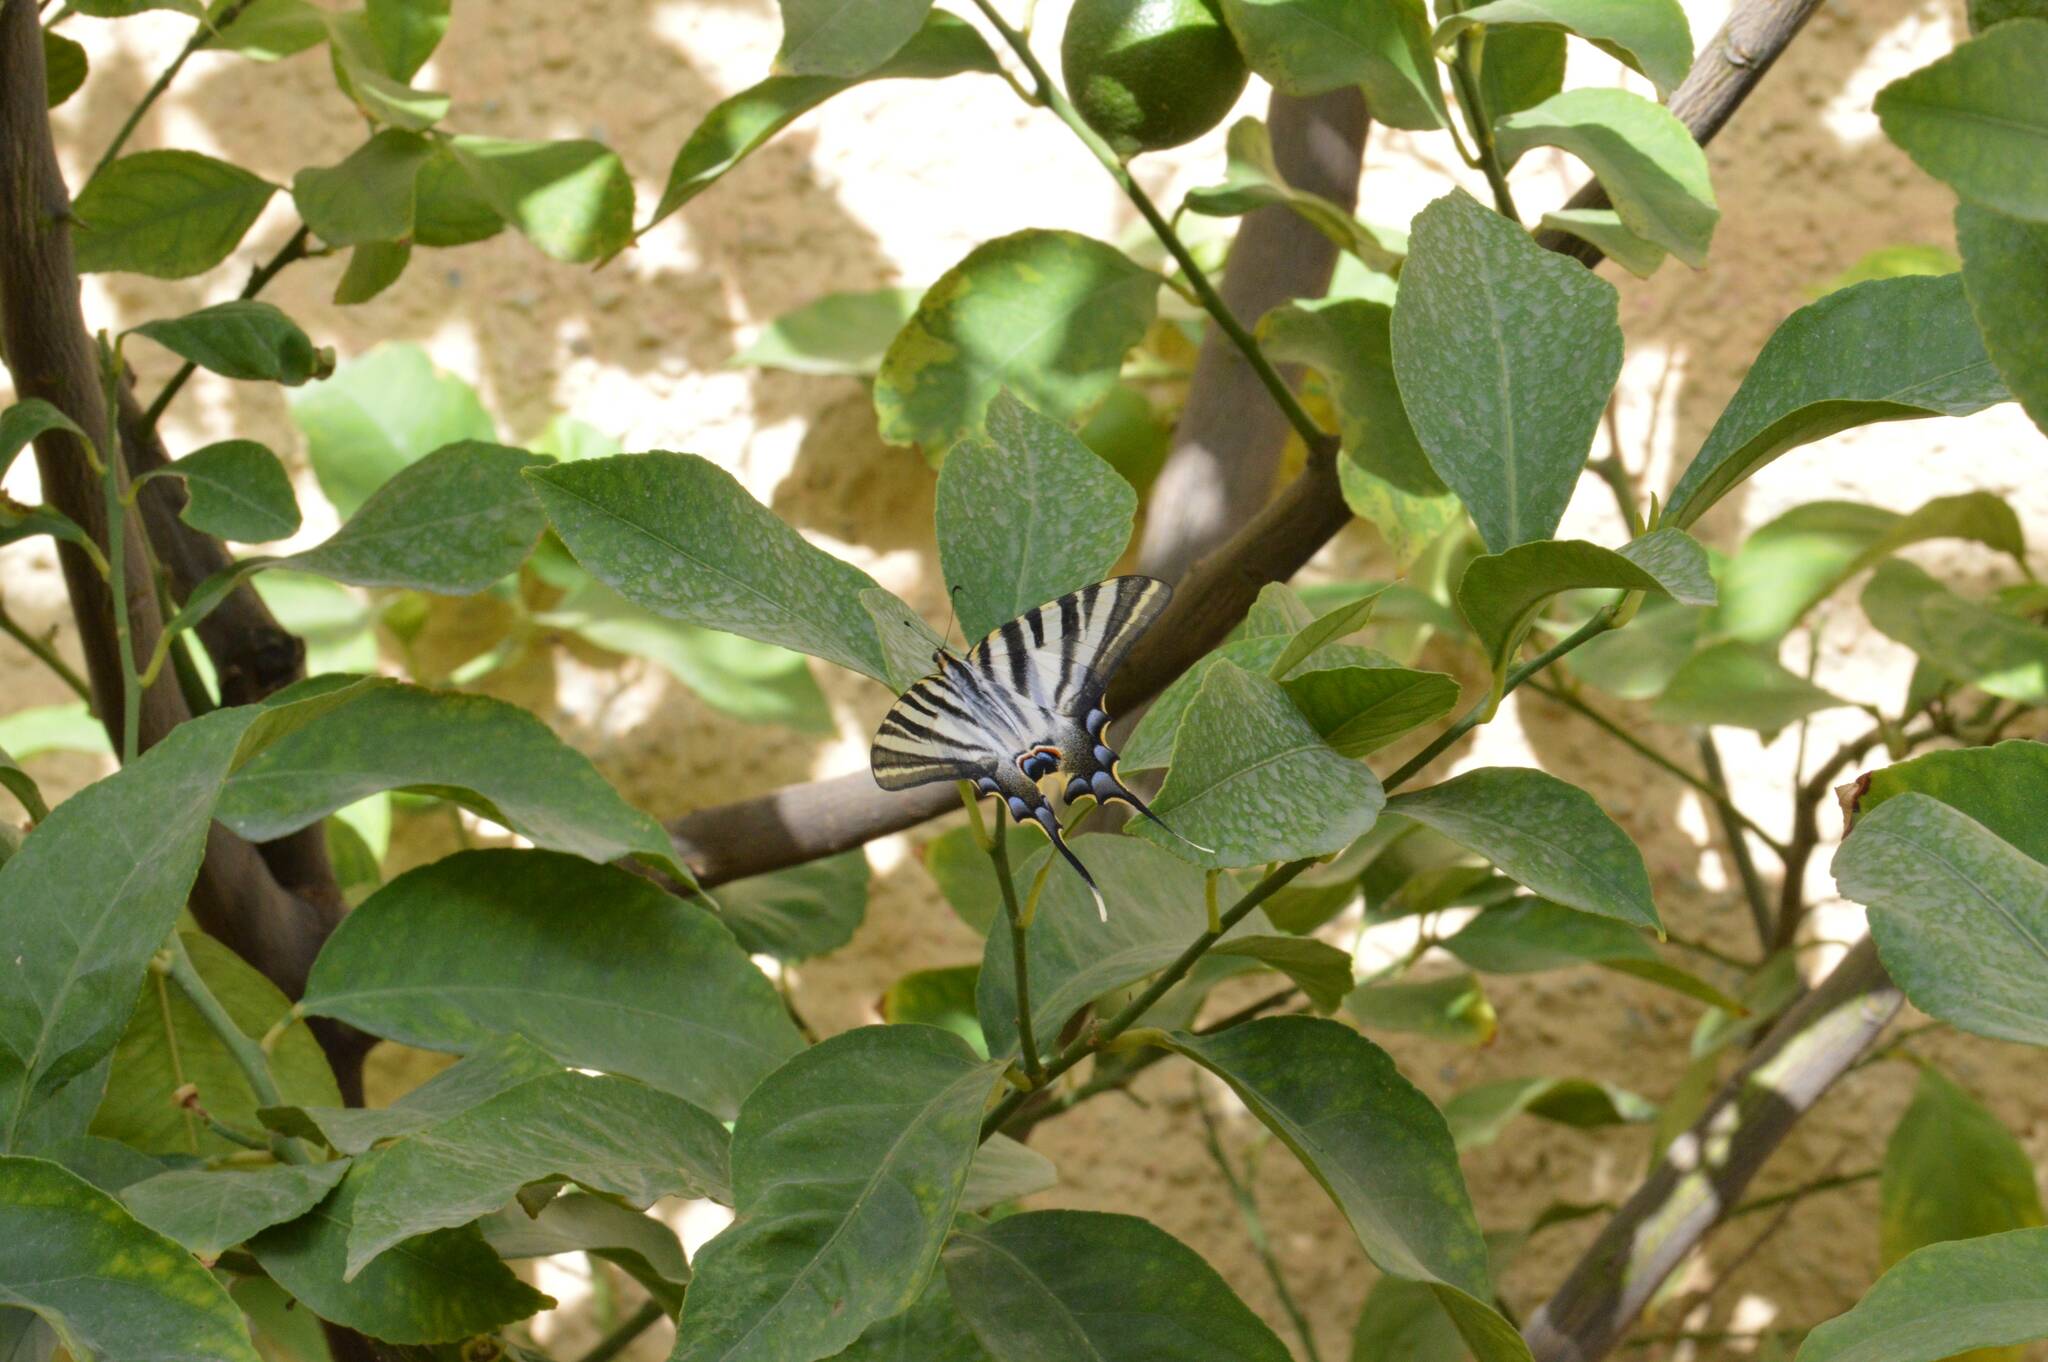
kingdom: Animalia
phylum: Arthropoda
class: Insecta
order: Lepidoptera
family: Papilionidae
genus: Iphiclides
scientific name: Iphiclides feisthamelii
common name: Iberian scarce swallowtail
